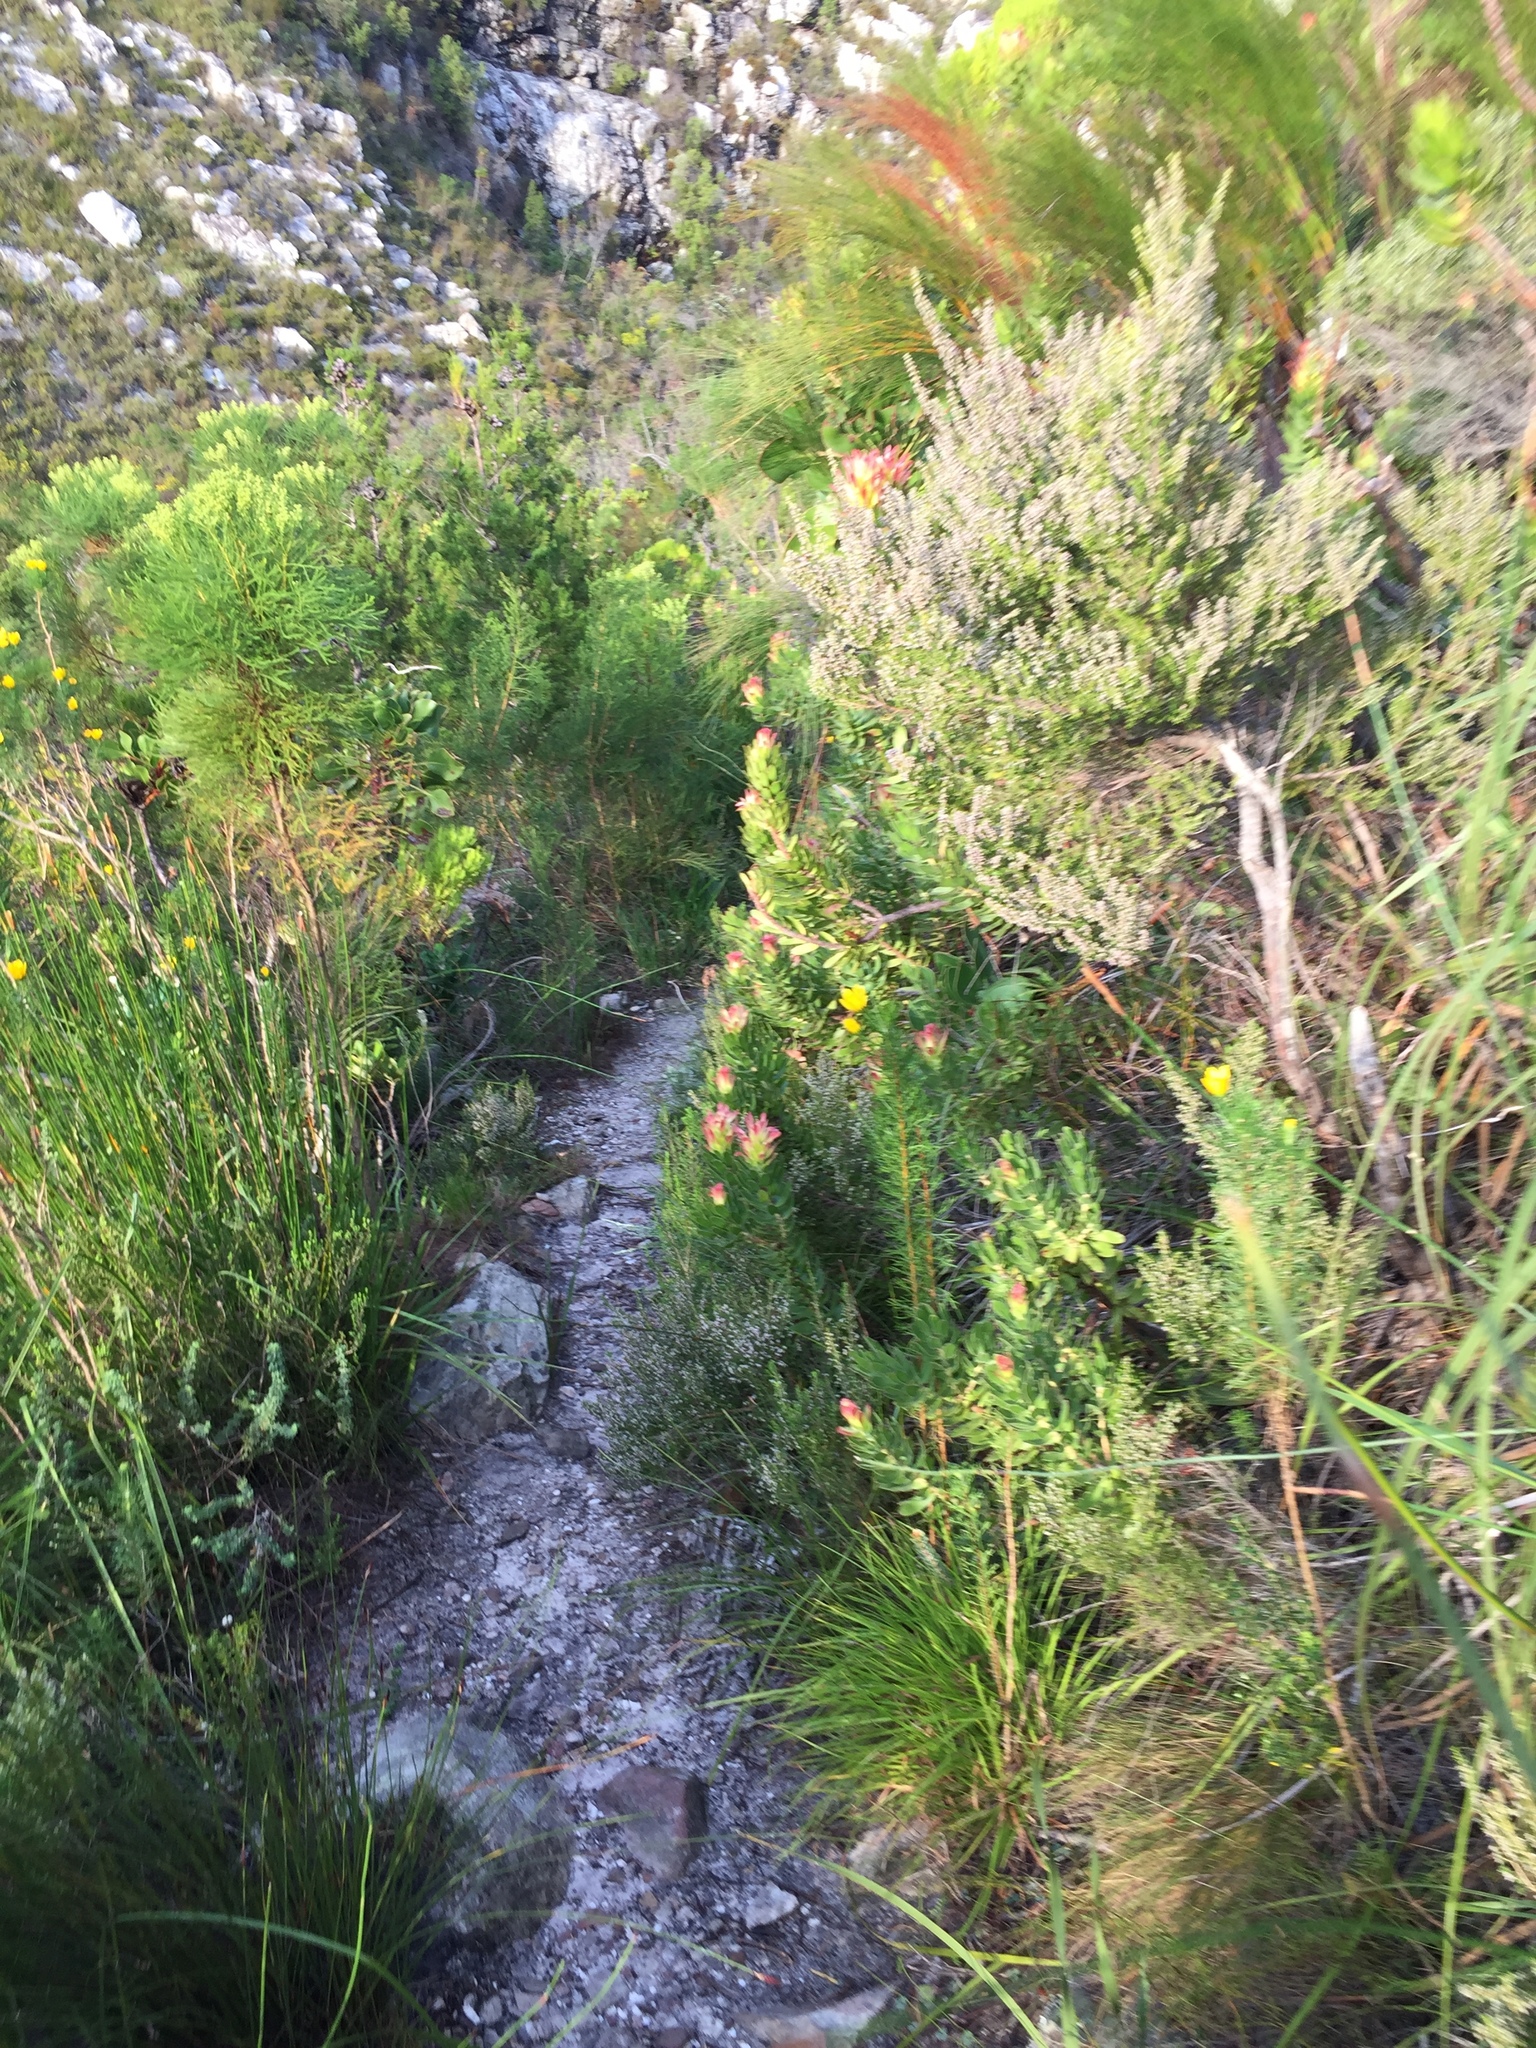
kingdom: Plantae
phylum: Tracheophyta
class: Magnoliopsida
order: Ericales
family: Ericaceae
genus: Erica
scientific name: Erica hispidula
